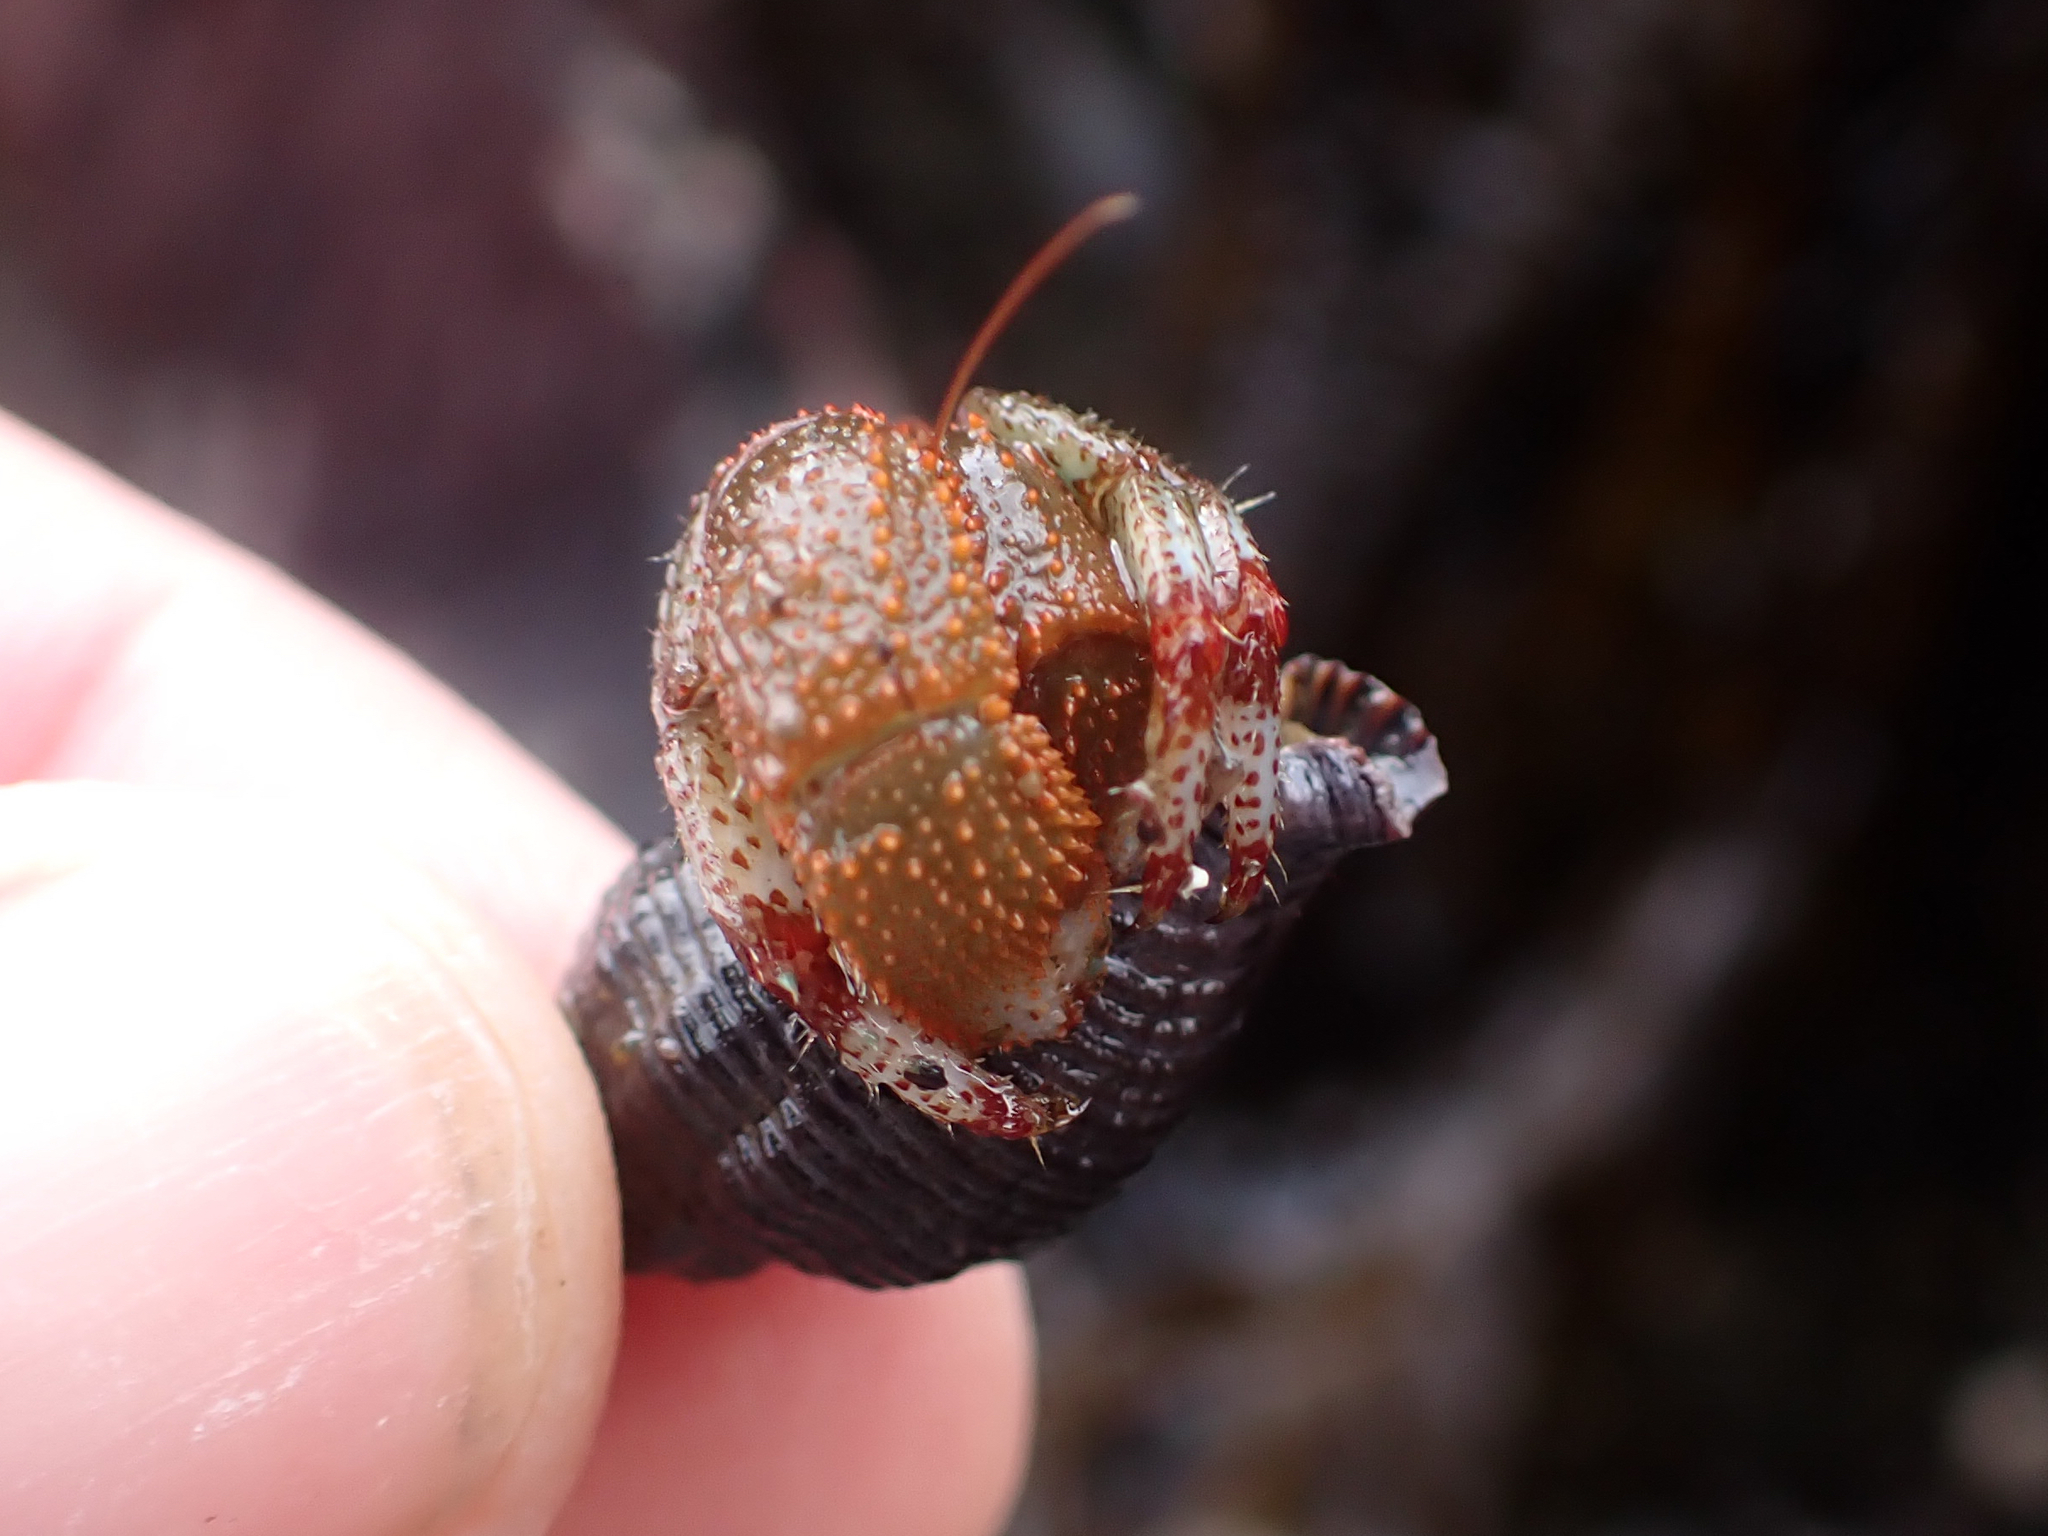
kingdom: Animalia
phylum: Arthropoda
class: Malacostraca
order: Decapoda
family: Paguridae
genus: Pagurus
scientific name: Pagurus beringanus
